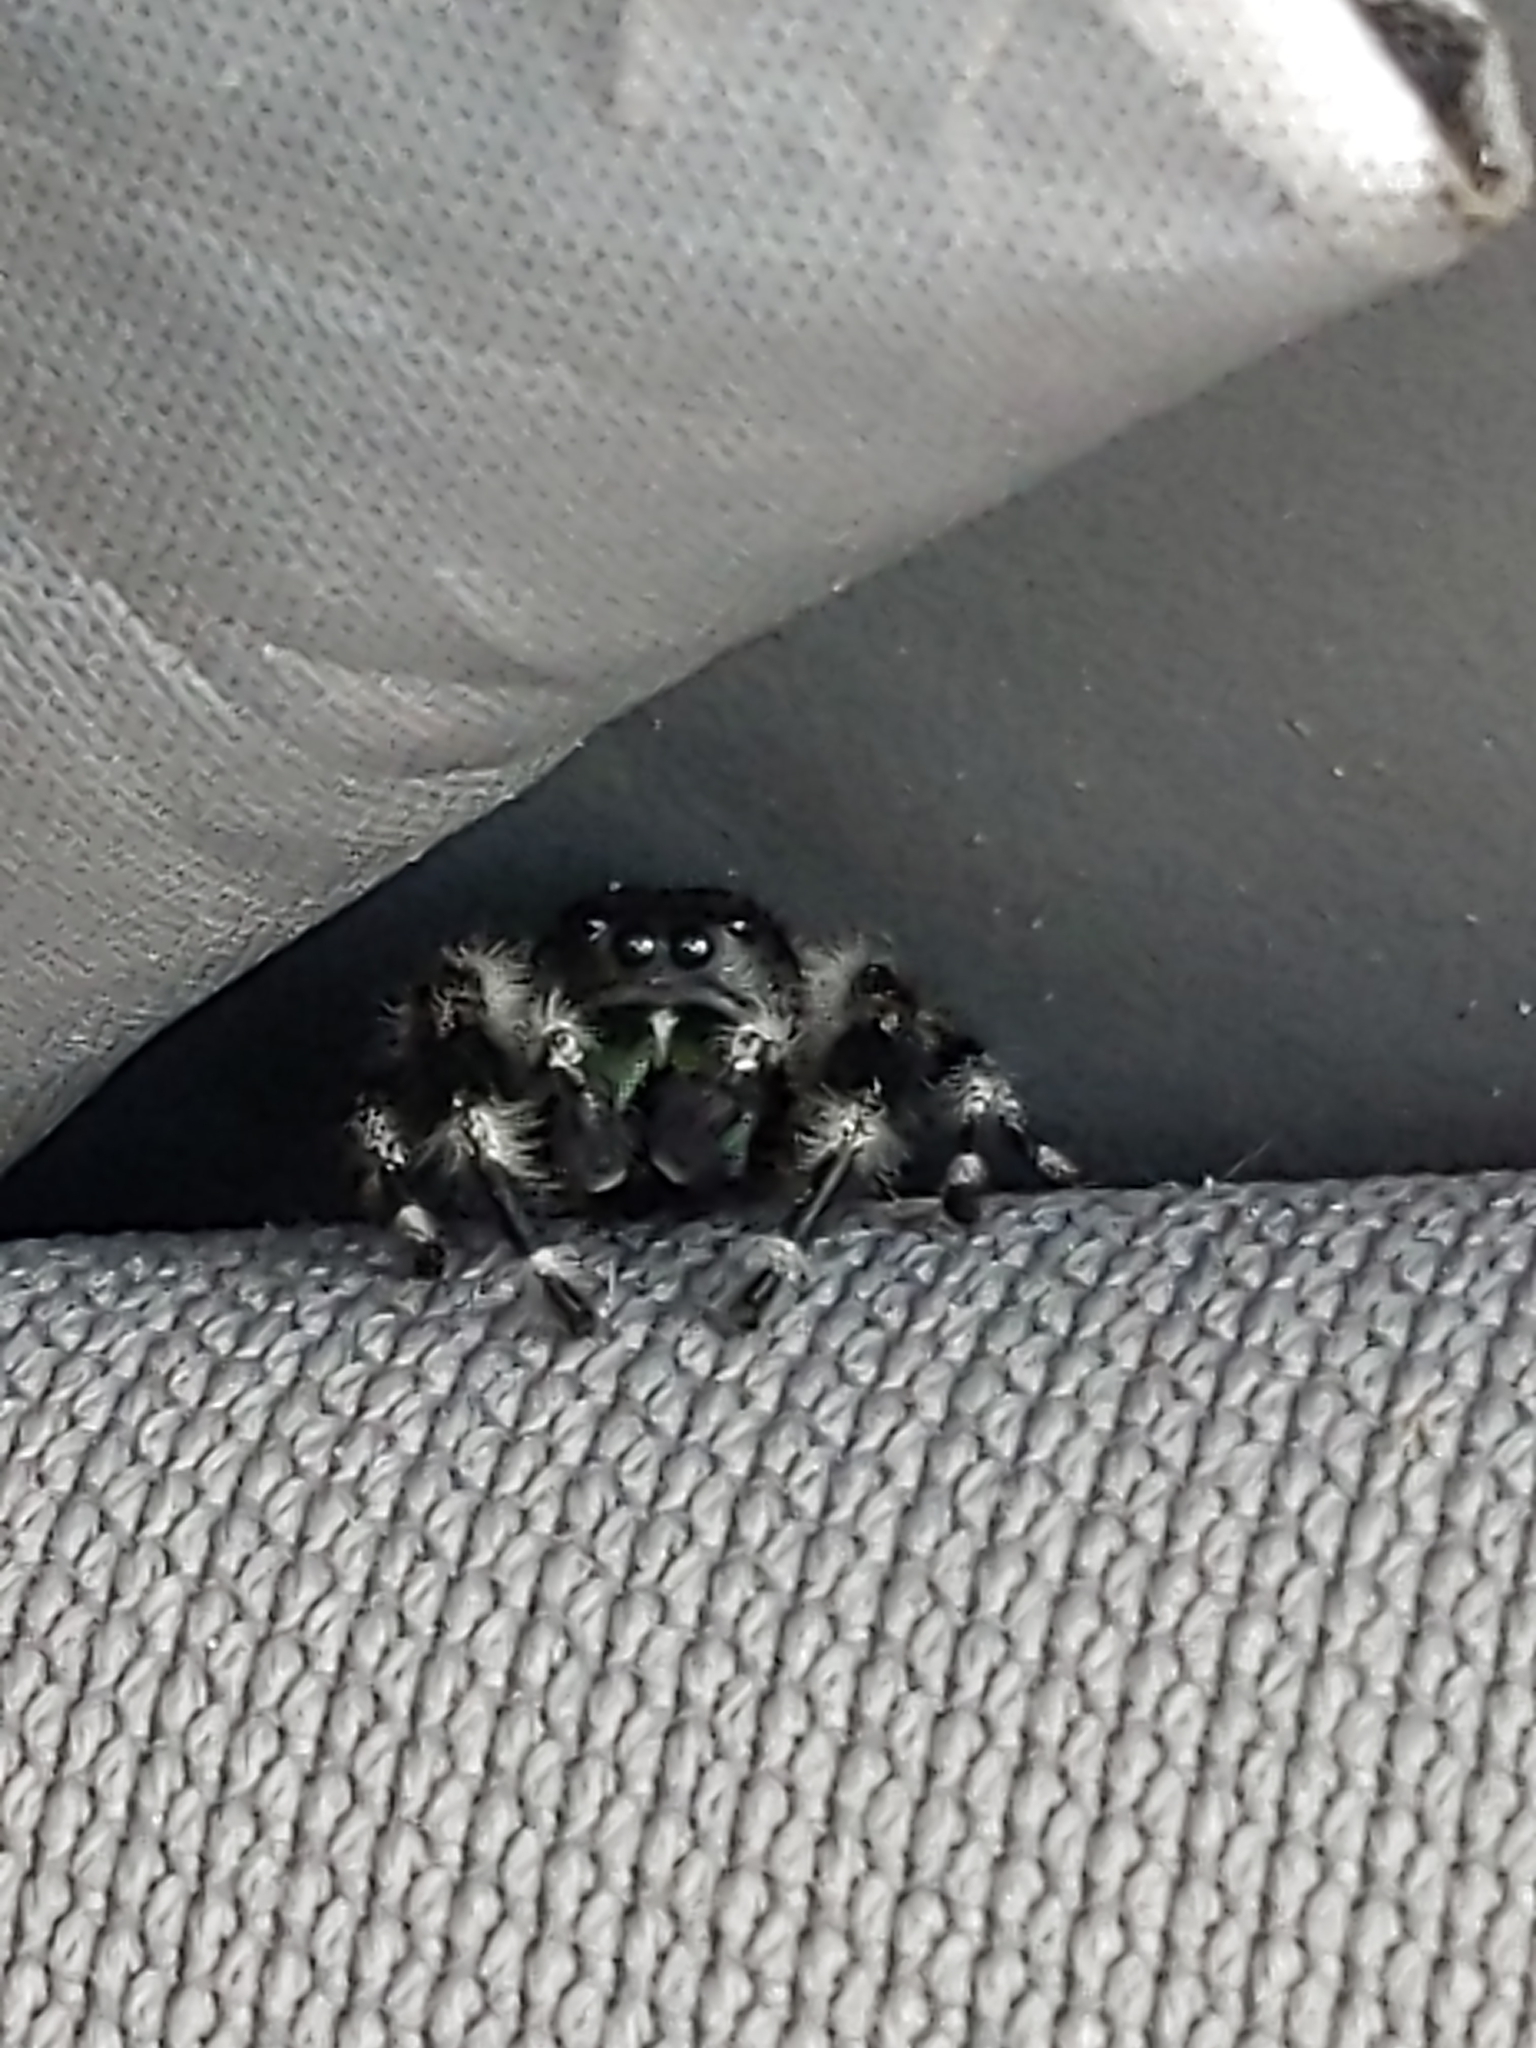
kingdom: Animalia
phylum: Arthropoda
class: Arachnida
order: Araneae
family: Salticidae
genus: Phidippus
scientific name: Phidippus audax
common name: Bold jumper
